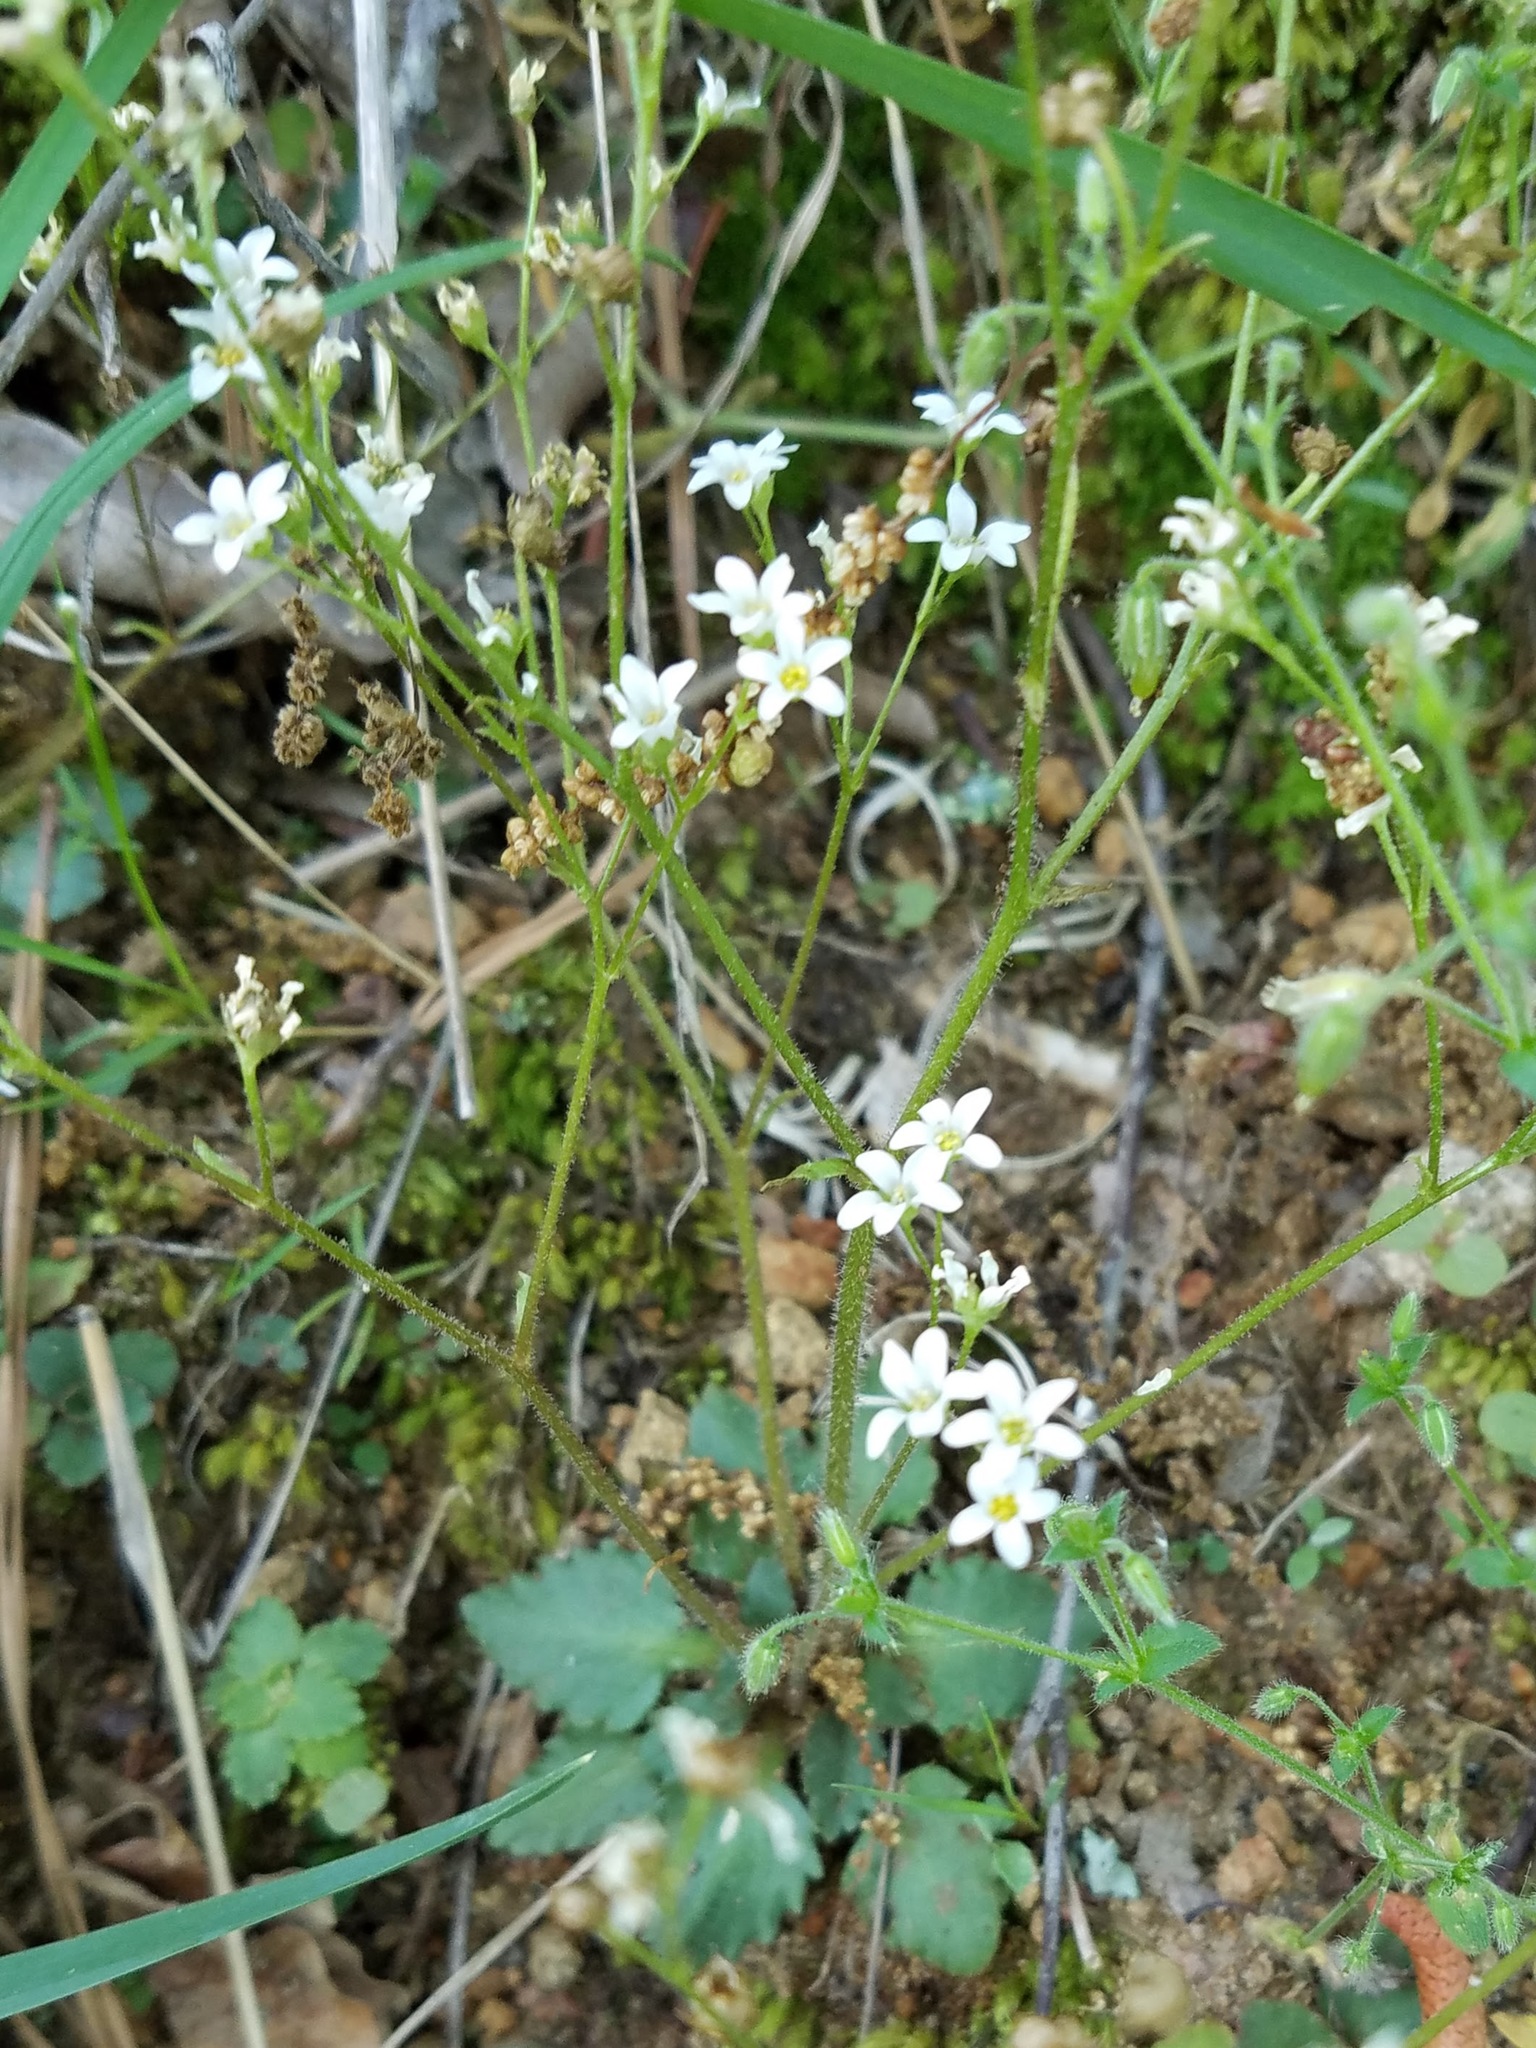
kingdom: Plantae
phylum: Tracheophyta
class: Magnoliopsida
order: Saxifragales
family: Saxifragaceae
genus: Micranthes
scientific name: Micranthes virginiensis
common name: Early saxifrage
